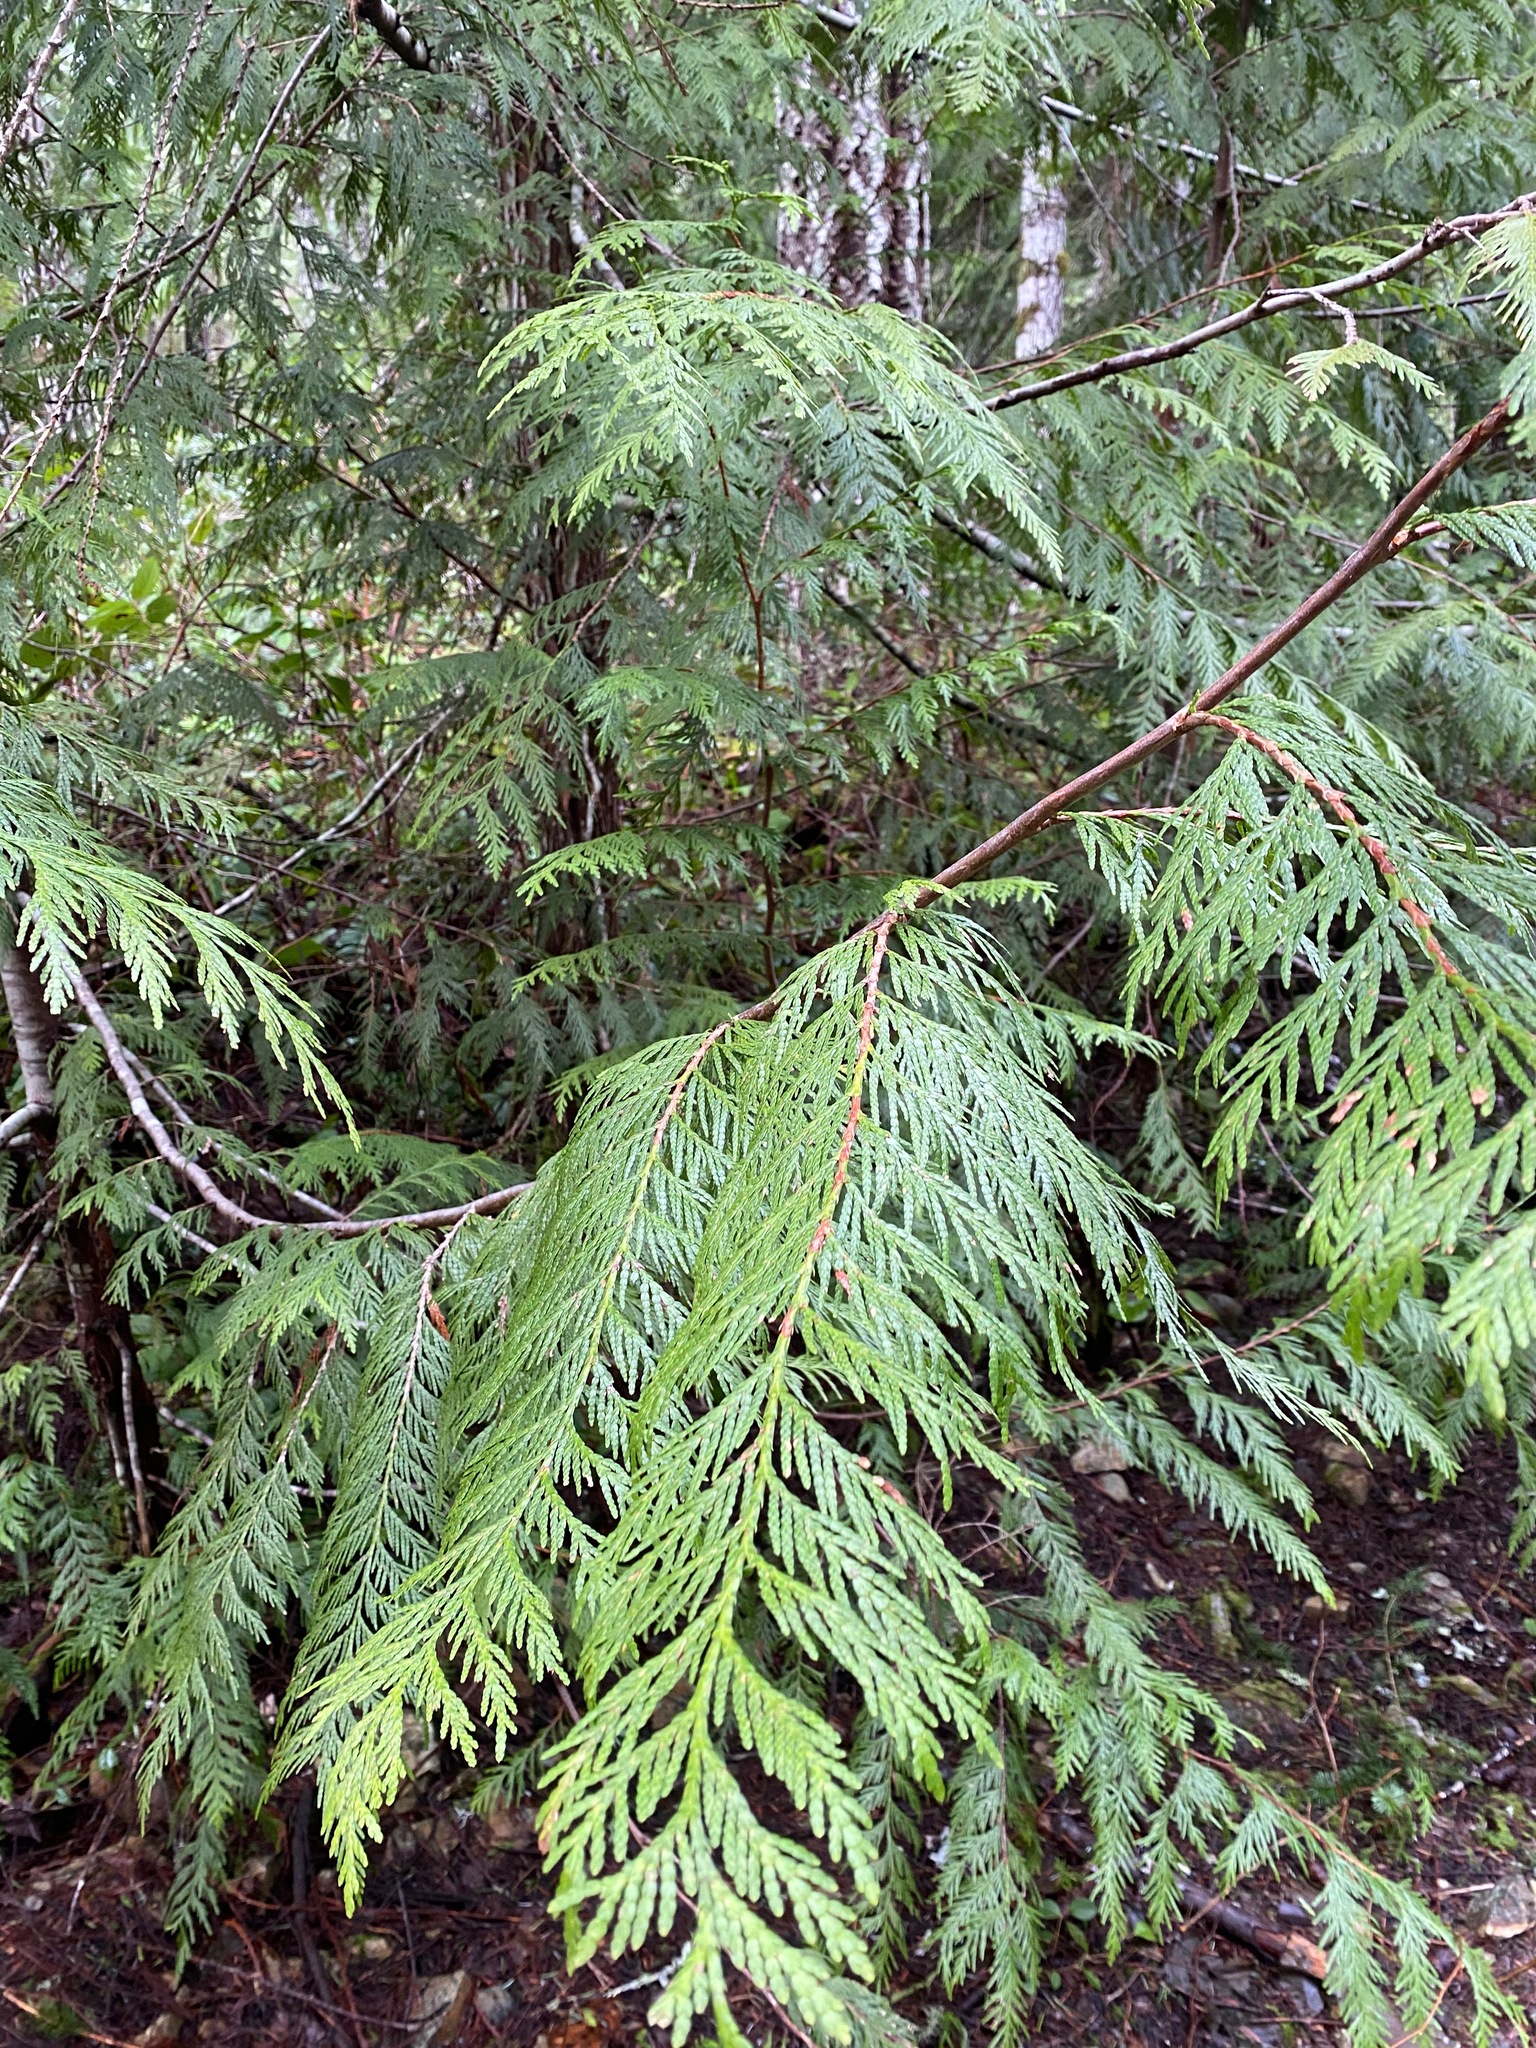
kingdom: Plantae
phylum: Tracheophyta
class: Pinopsida
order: Pinales
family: Cupressaceae
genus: Thuja
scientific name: Thuja plicata
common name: Western red-cedar
